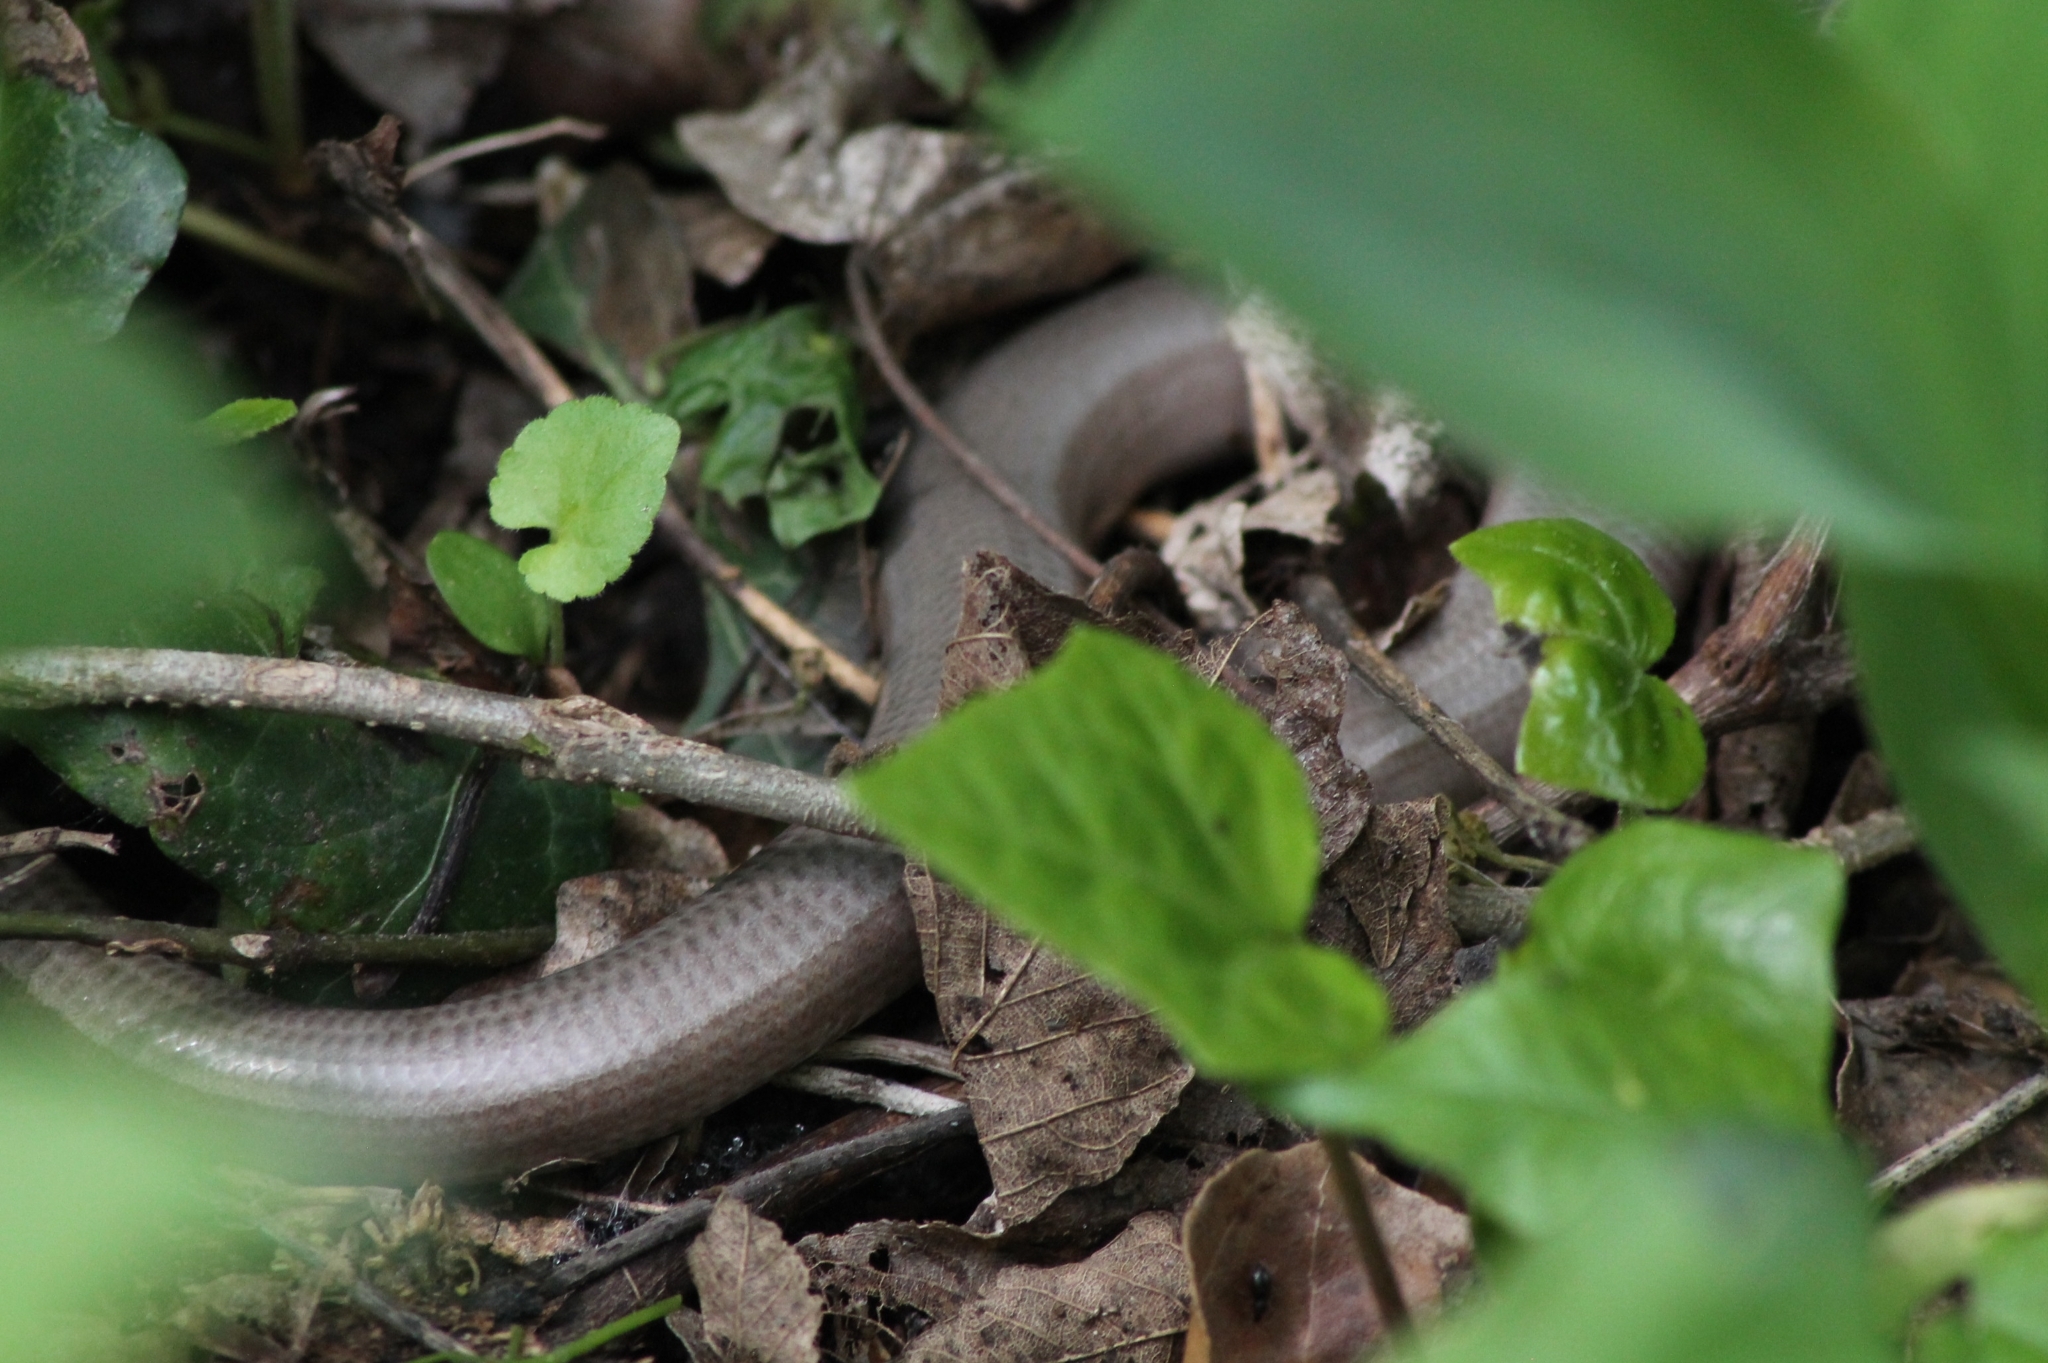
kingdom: Animalia
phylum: Chordata
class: Squamata
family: Anguidae
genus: Anguis
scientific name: Anguis fragilis
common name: Slow worm
